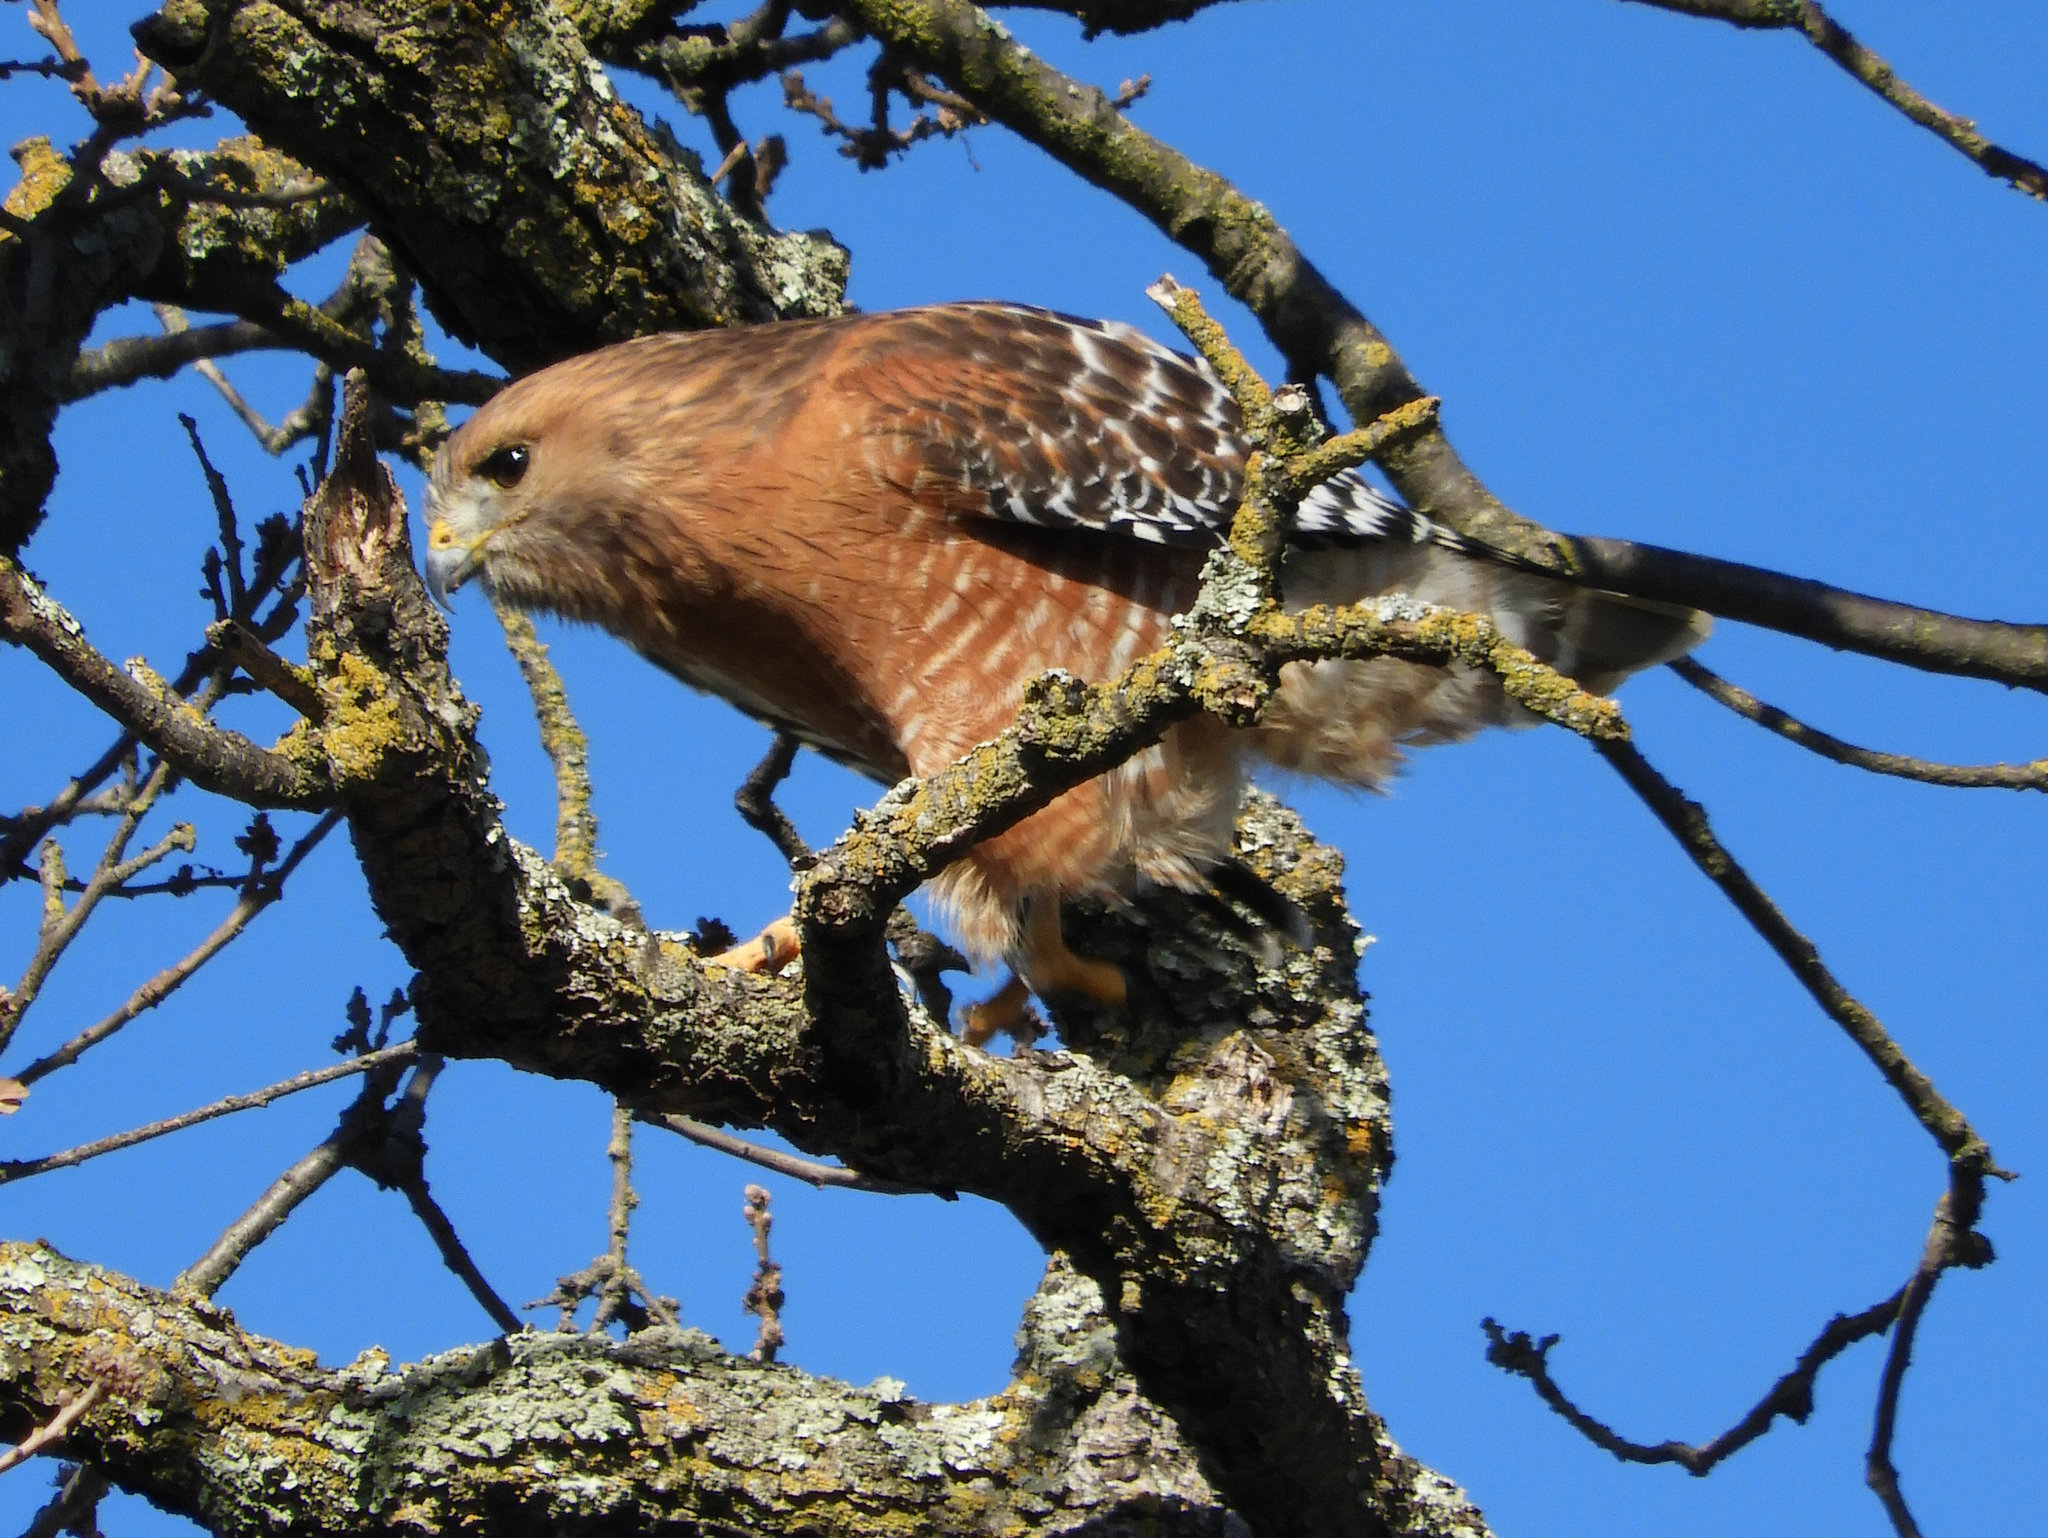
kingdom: Animalia
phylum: Chordata
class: Aves
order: Accipitriformes
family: Accipitridae
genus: Buteo
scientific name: Buteo lineatus
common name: Red-shouldered hawk
